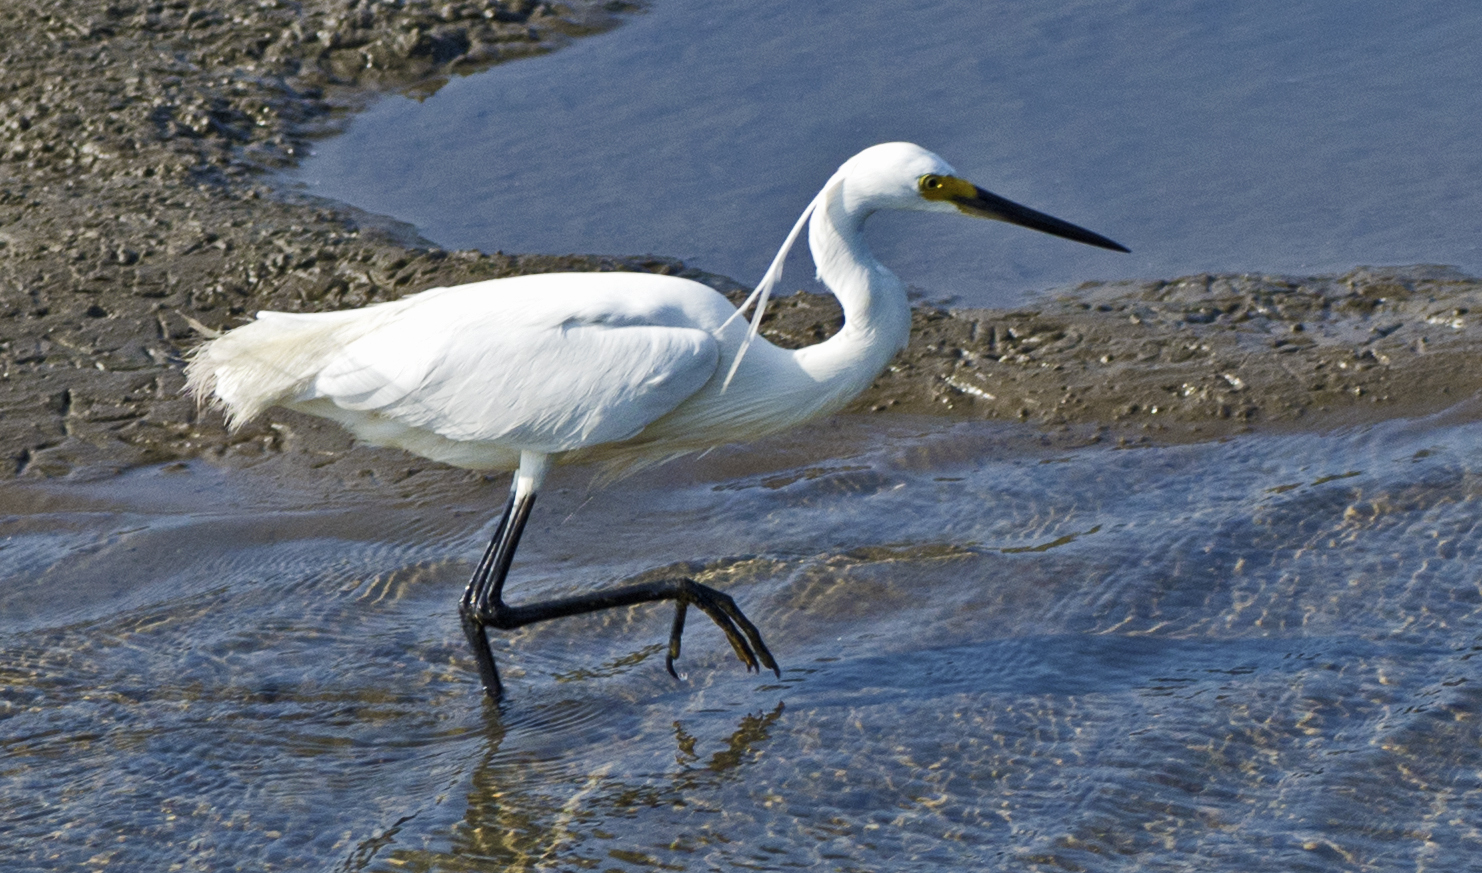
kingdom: Animalia
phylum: Chordata
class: Aves
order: Pelecaniformes
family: Ardeidae
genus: Egretta
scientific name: Egretta garzetta
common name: Little egret
